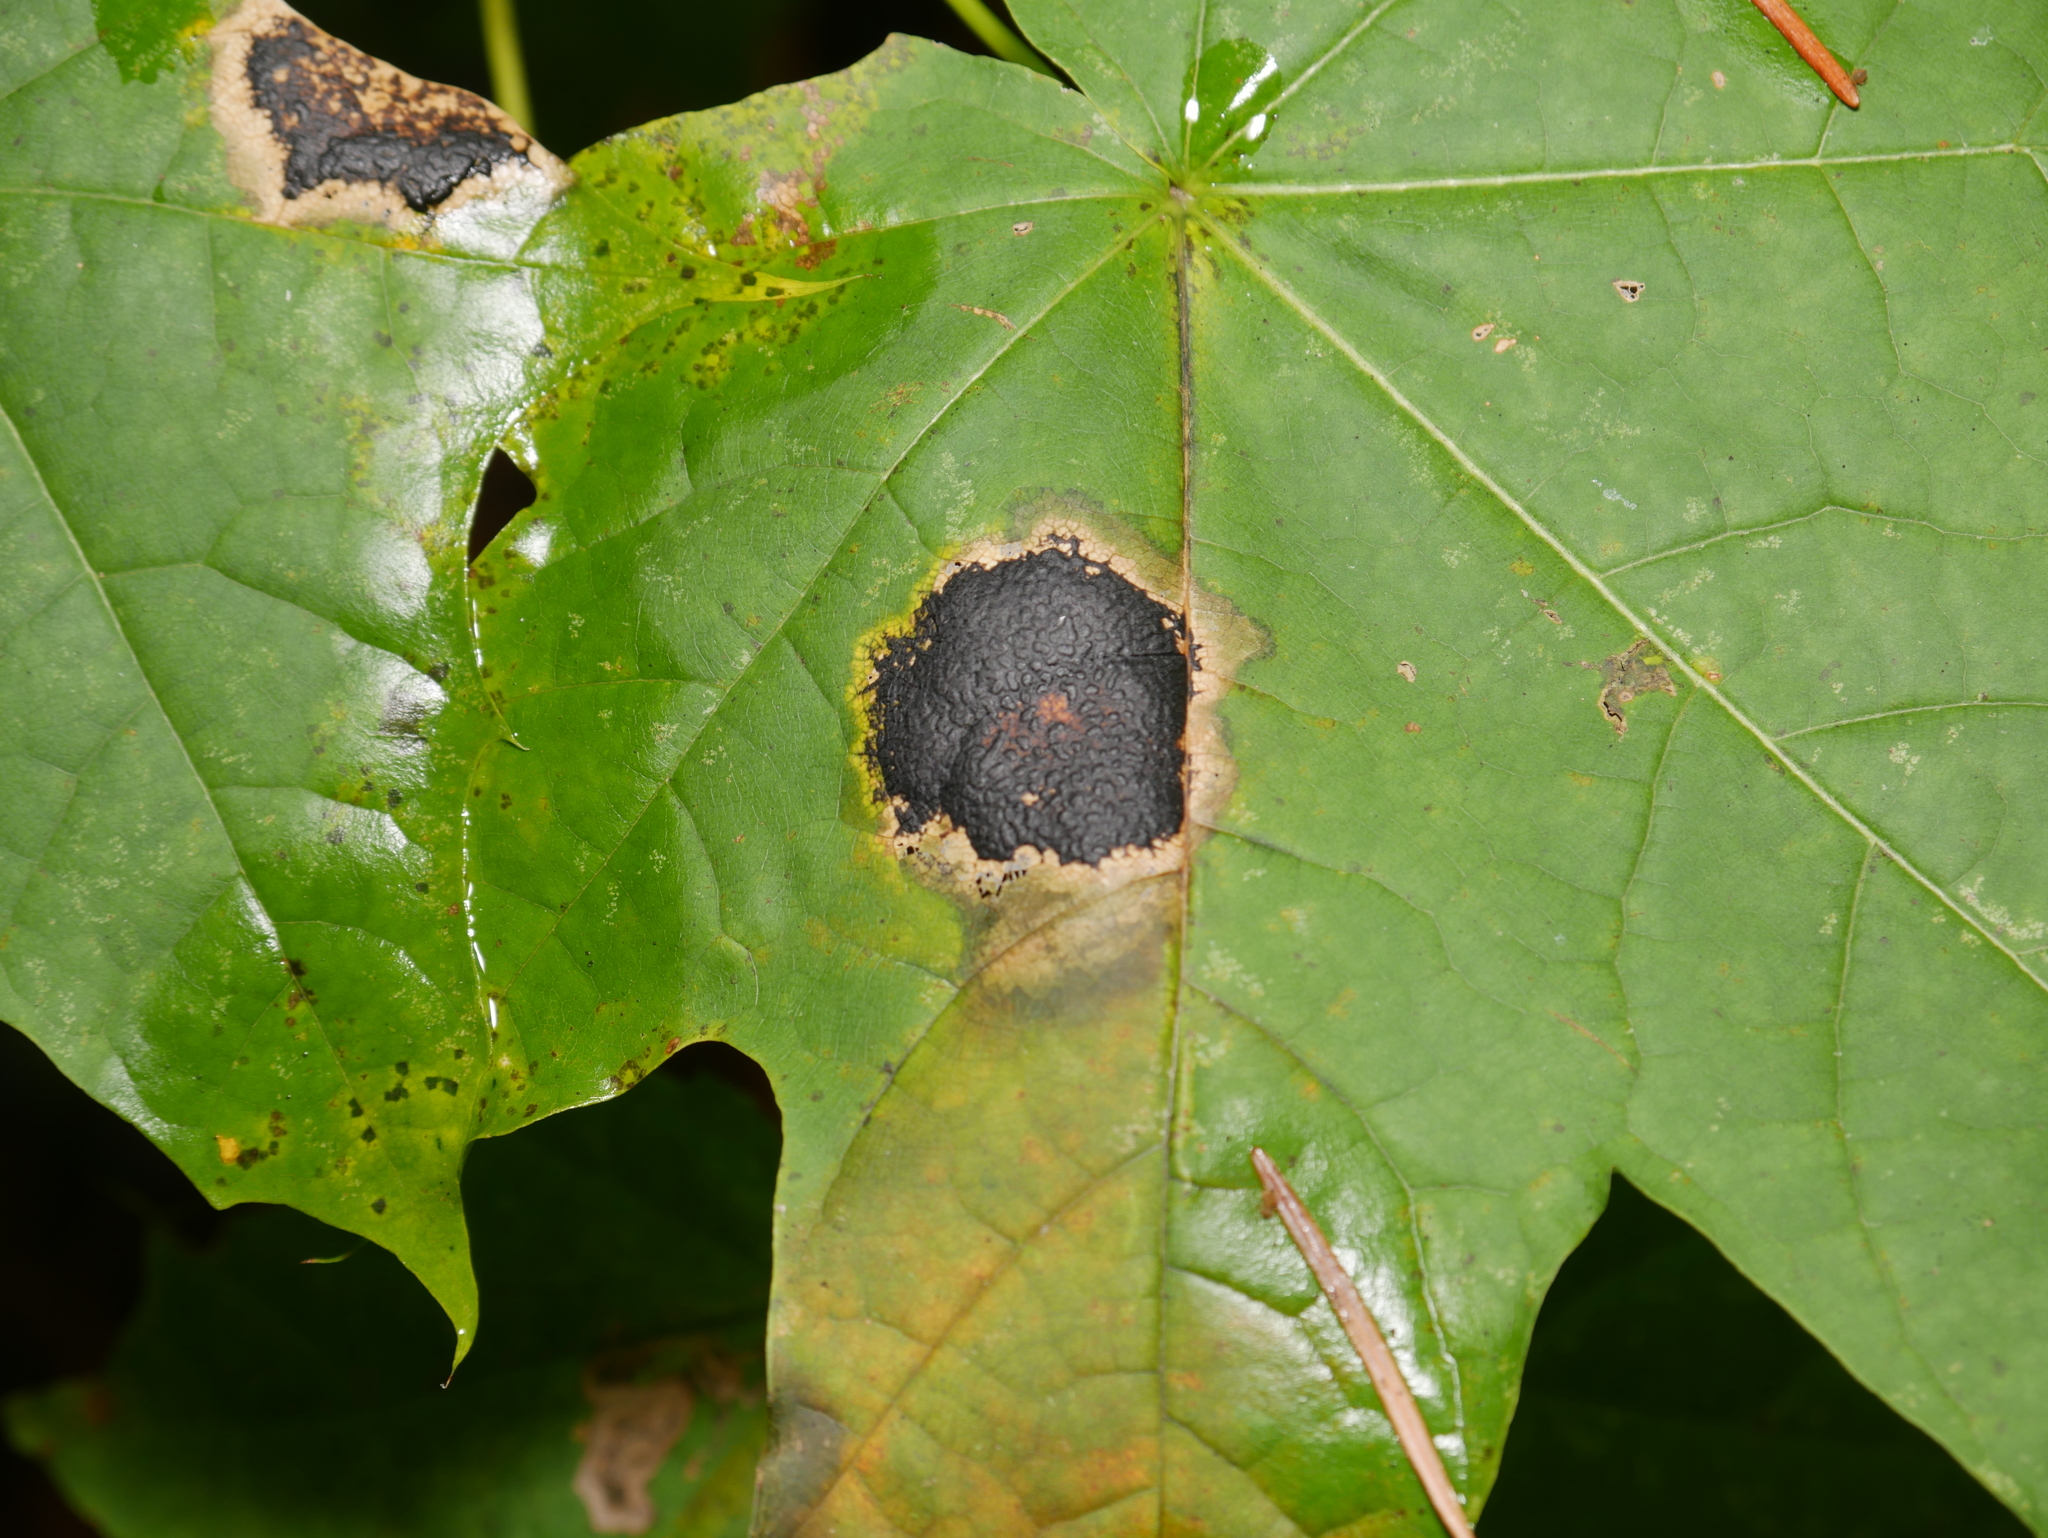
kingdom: Fungi
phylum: Ascomycota
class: Leotiomycetes
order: Rhytismatales
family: Rhytismataceae
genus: Rhytisma
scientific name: Rhytisma acerinum
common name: European tar spot
